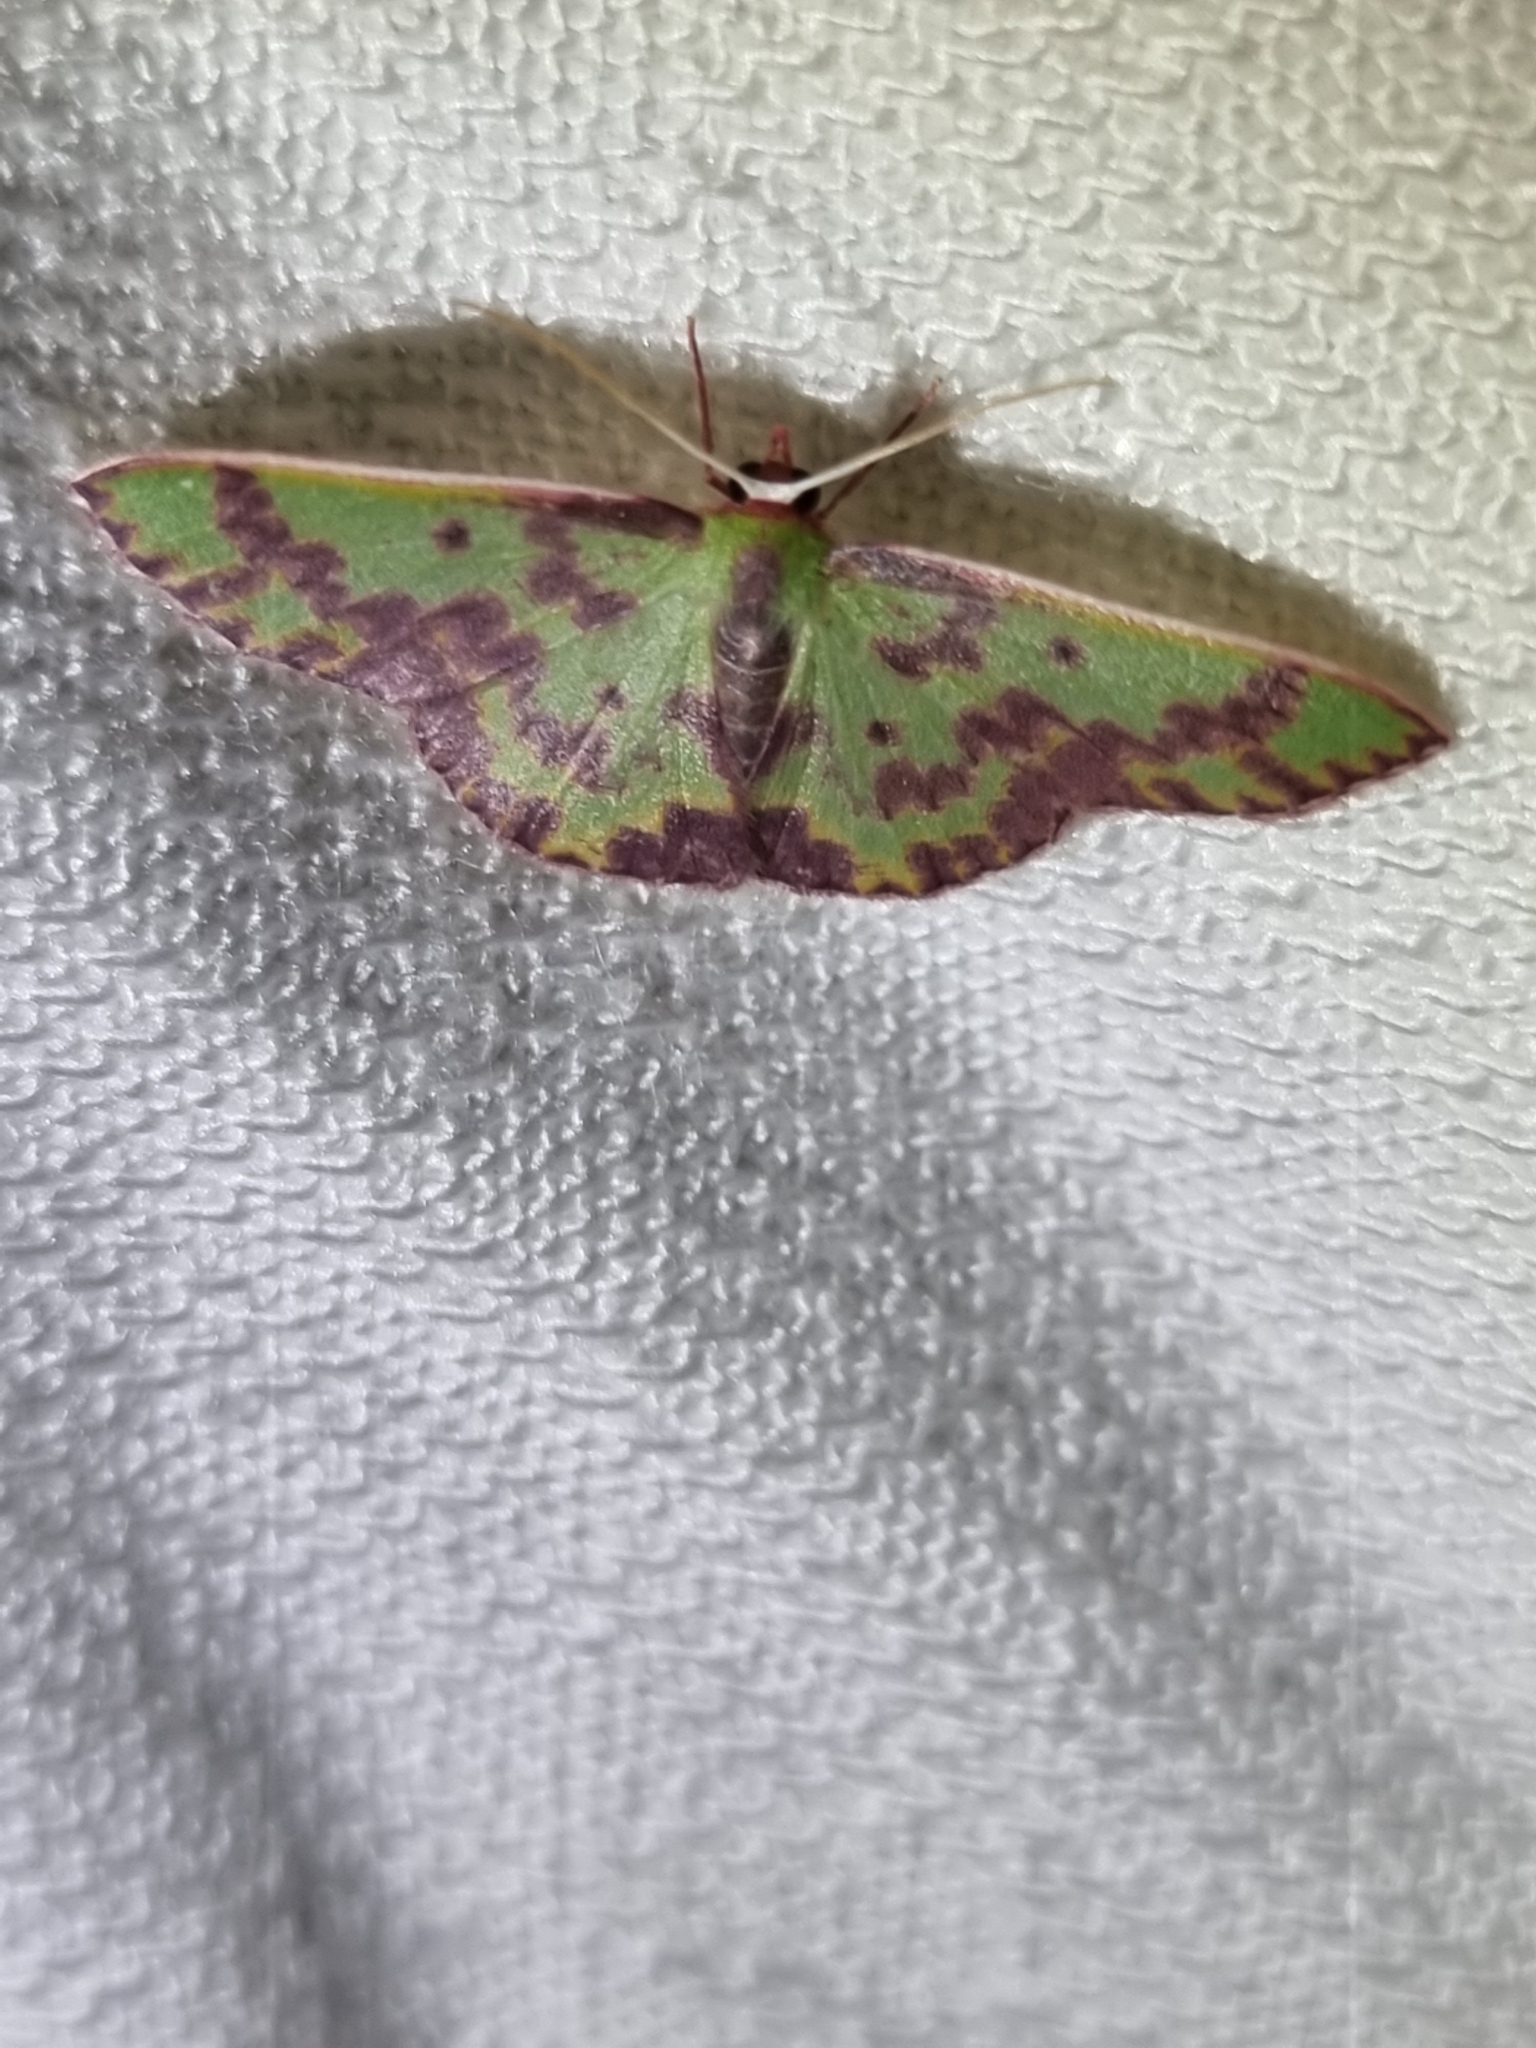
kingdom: Animalia
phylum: Arthropoda
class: Insecta
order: Lepidoptera
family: Geometridae
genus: Prasinocyma
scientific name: Prasinocyma rhodocosma
